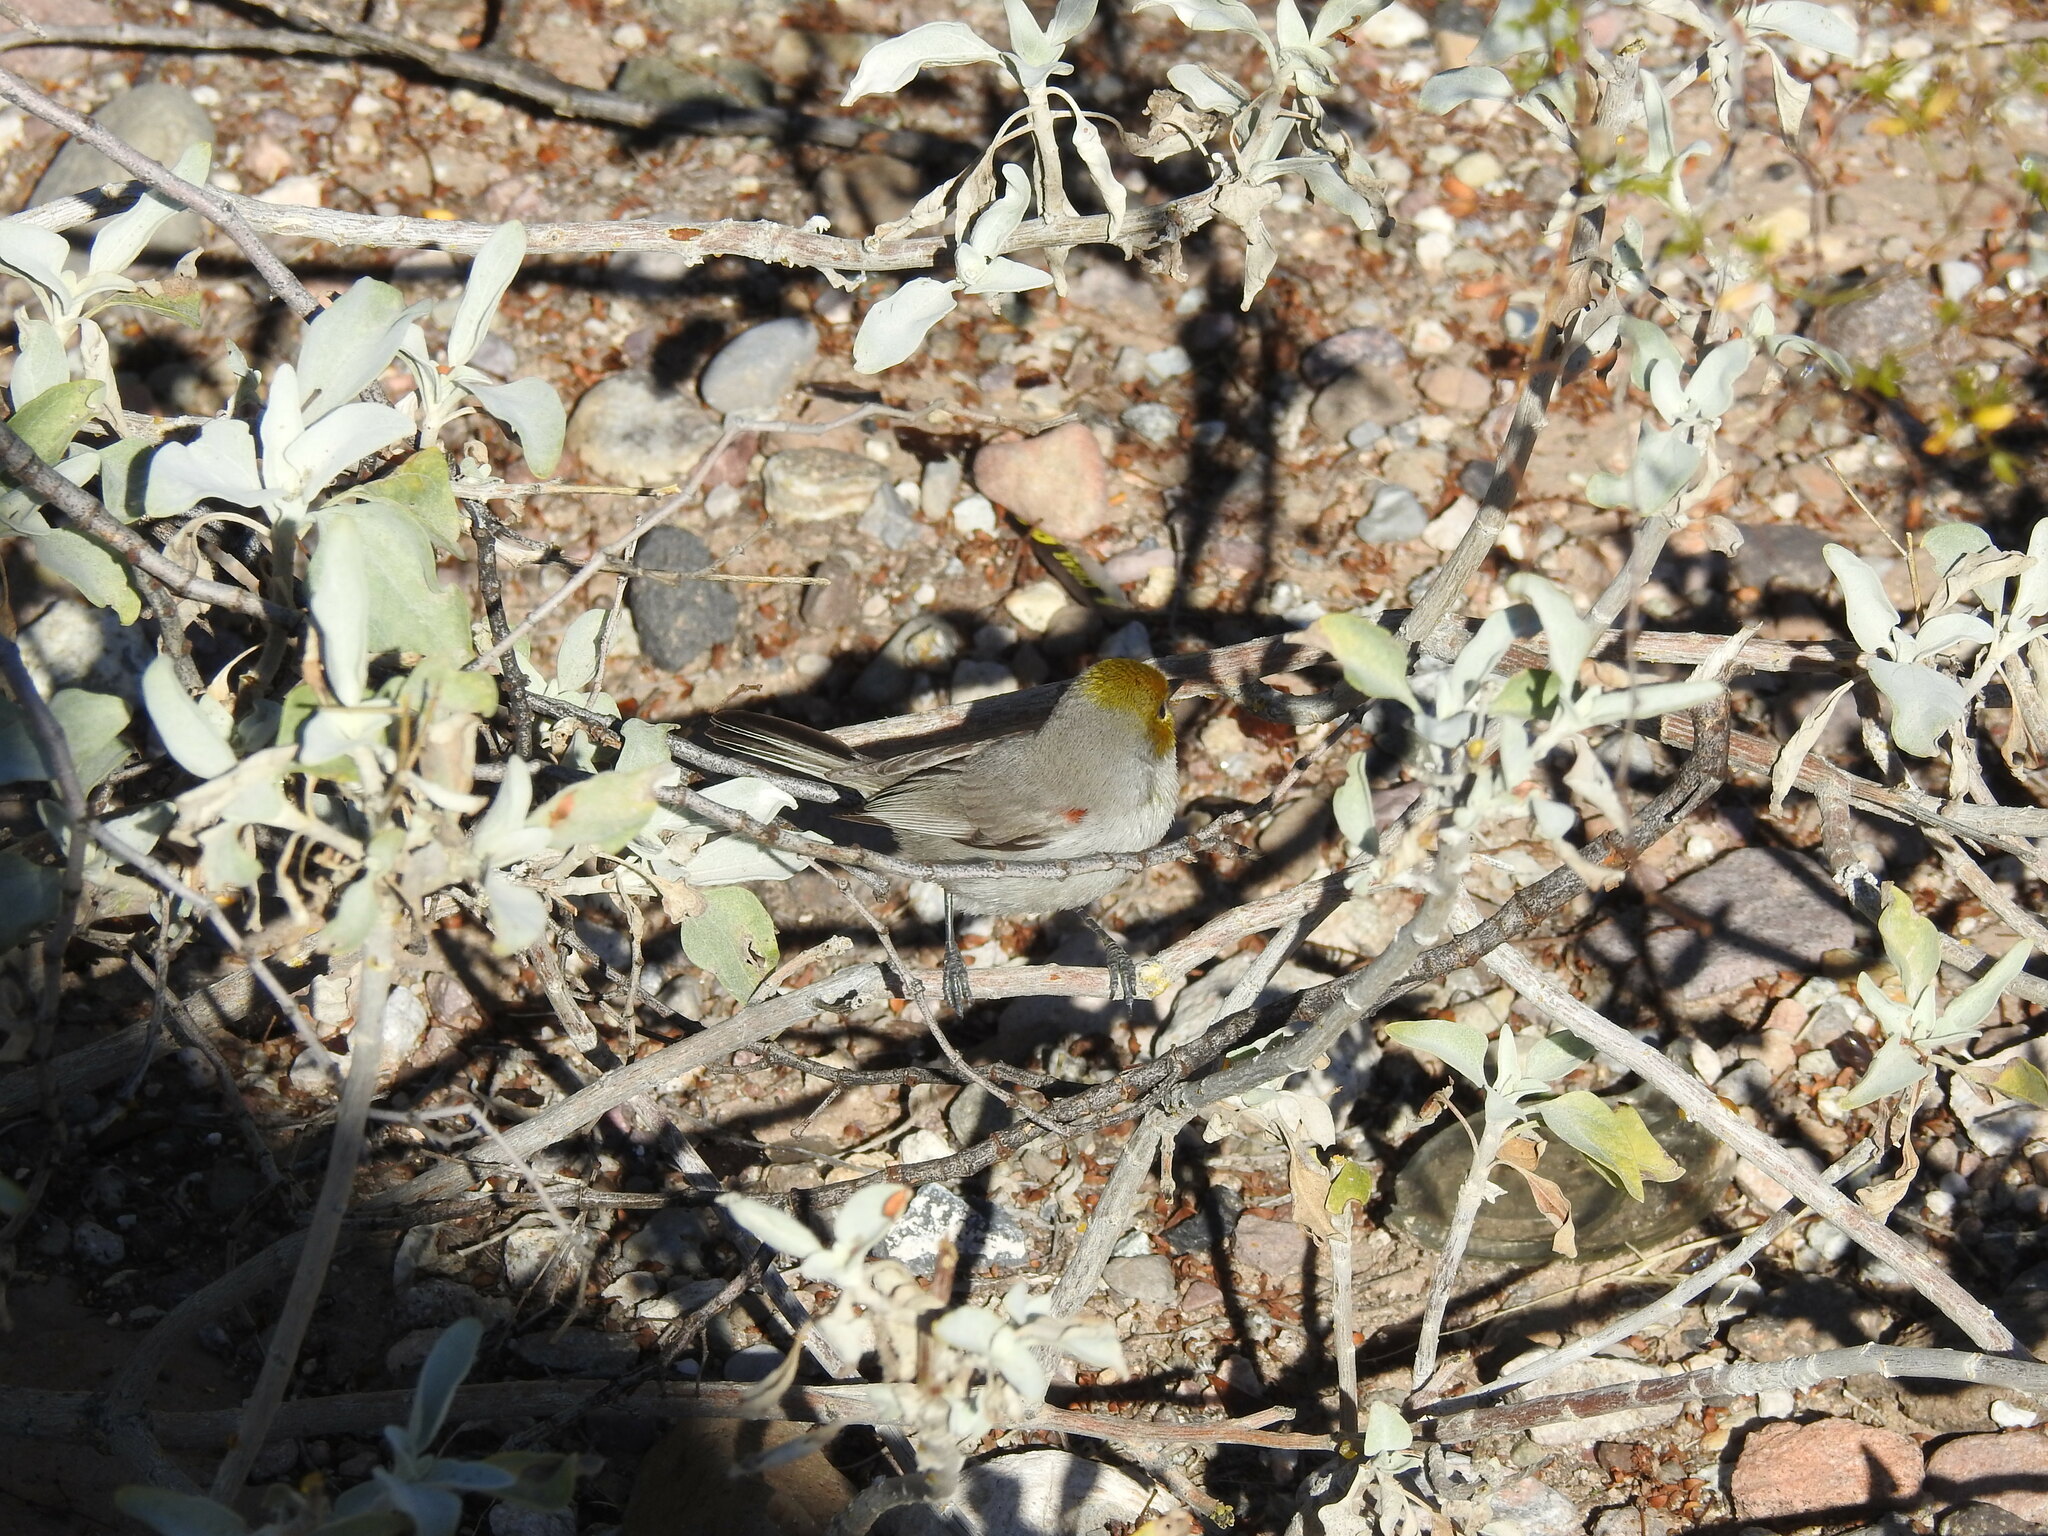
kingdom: Animalia
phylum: Chordata
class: Aves
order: Passeriformes
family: Remizidae
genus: Auriparus
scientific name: Auriparus flaviceps
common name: Verdin
